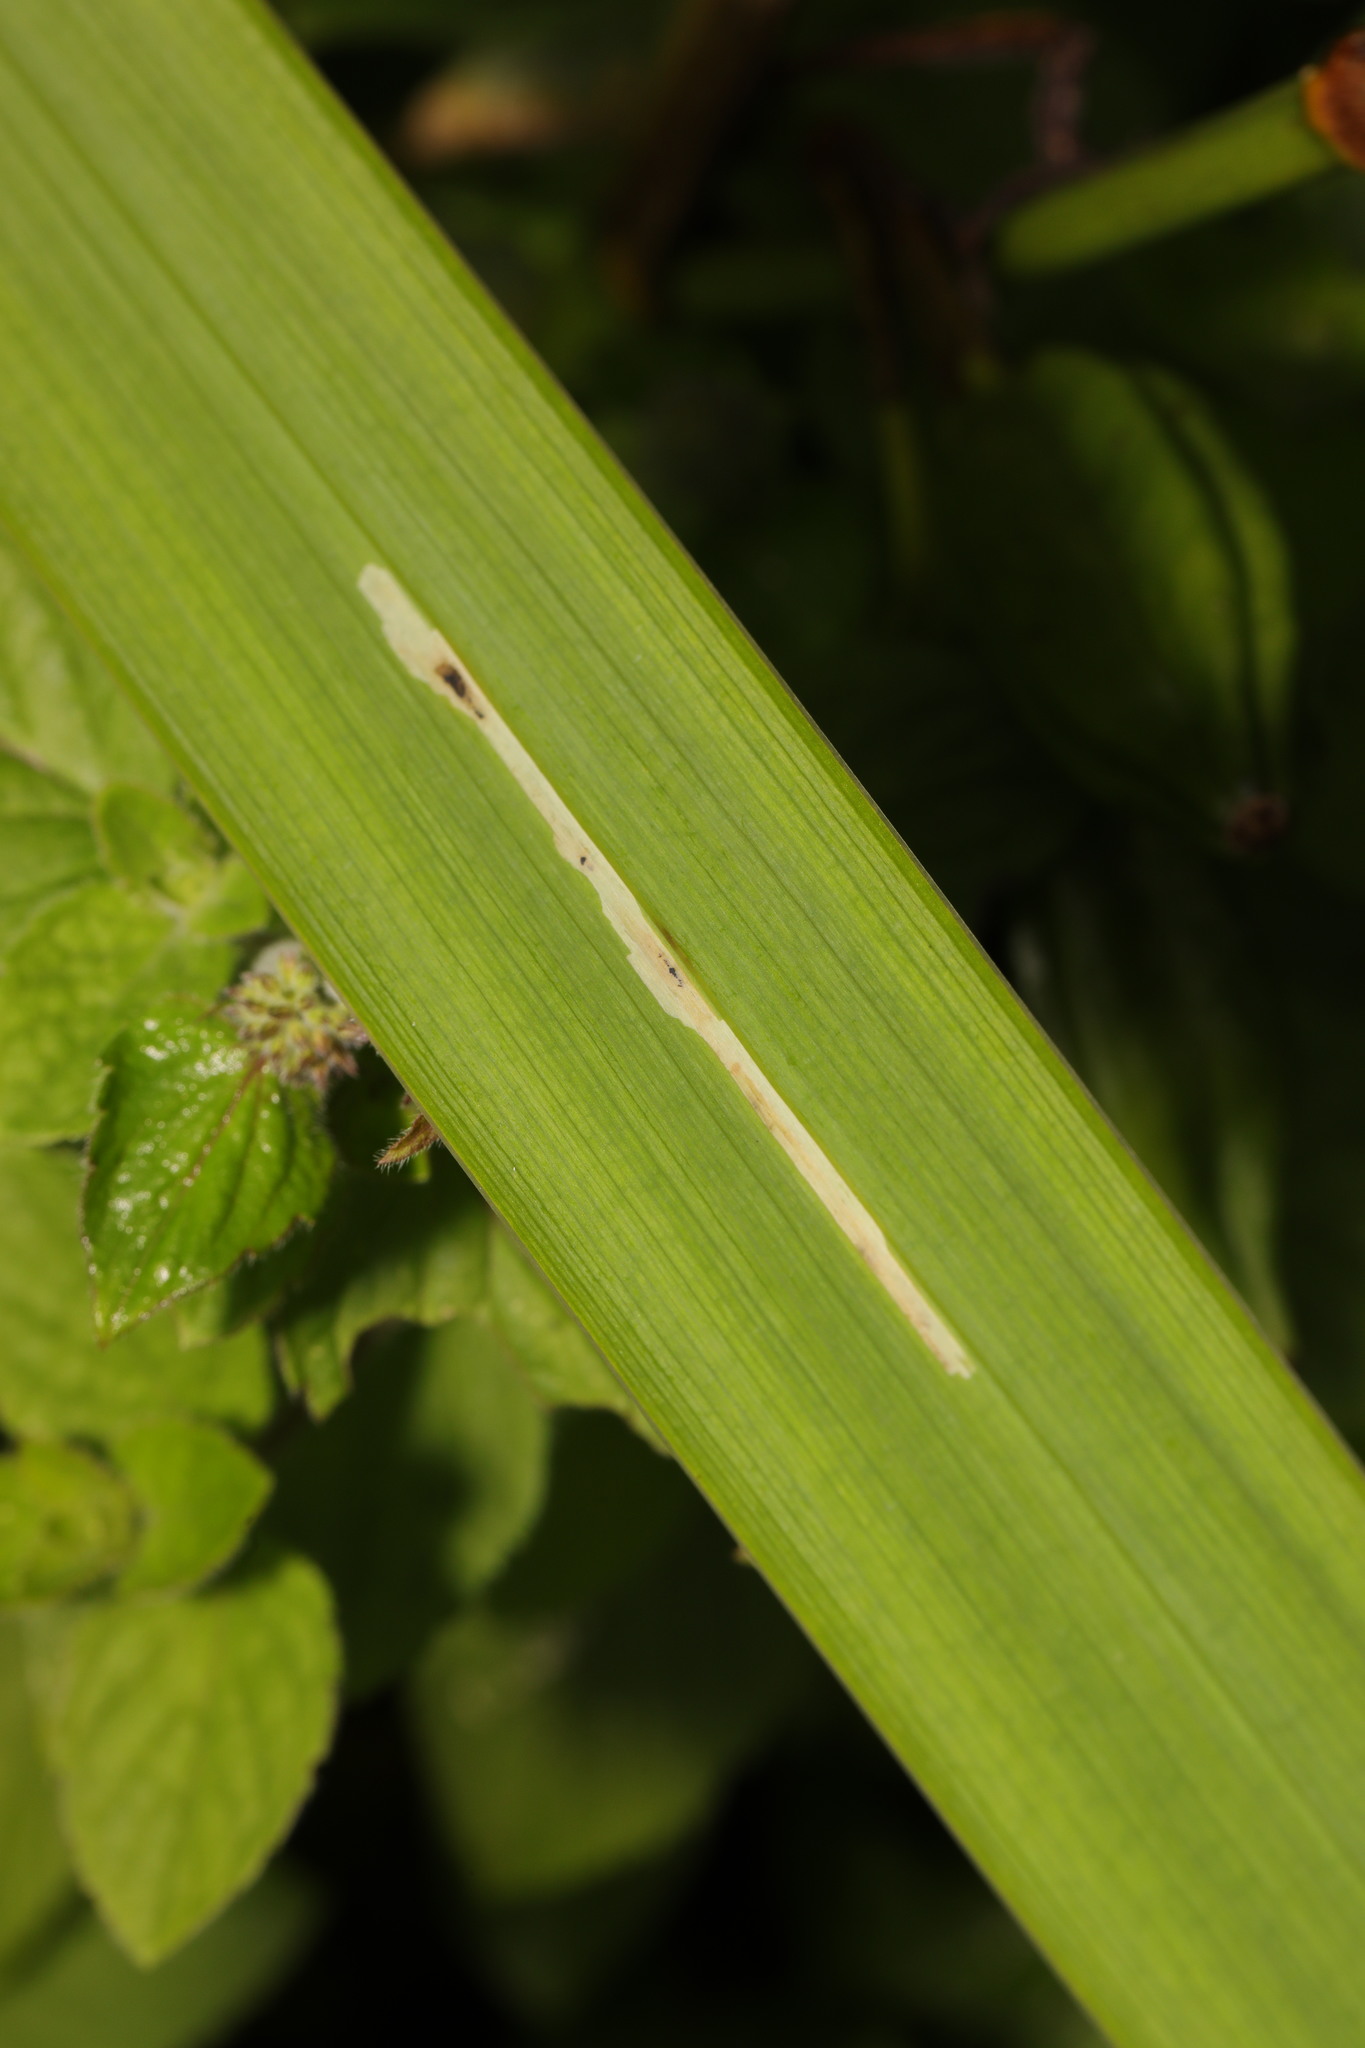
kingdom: Animalia
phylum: Arthropoda
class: Insecta
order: Diptera
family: Agromyzidae
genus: Cerodontha
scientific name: Cerodontha ircos
